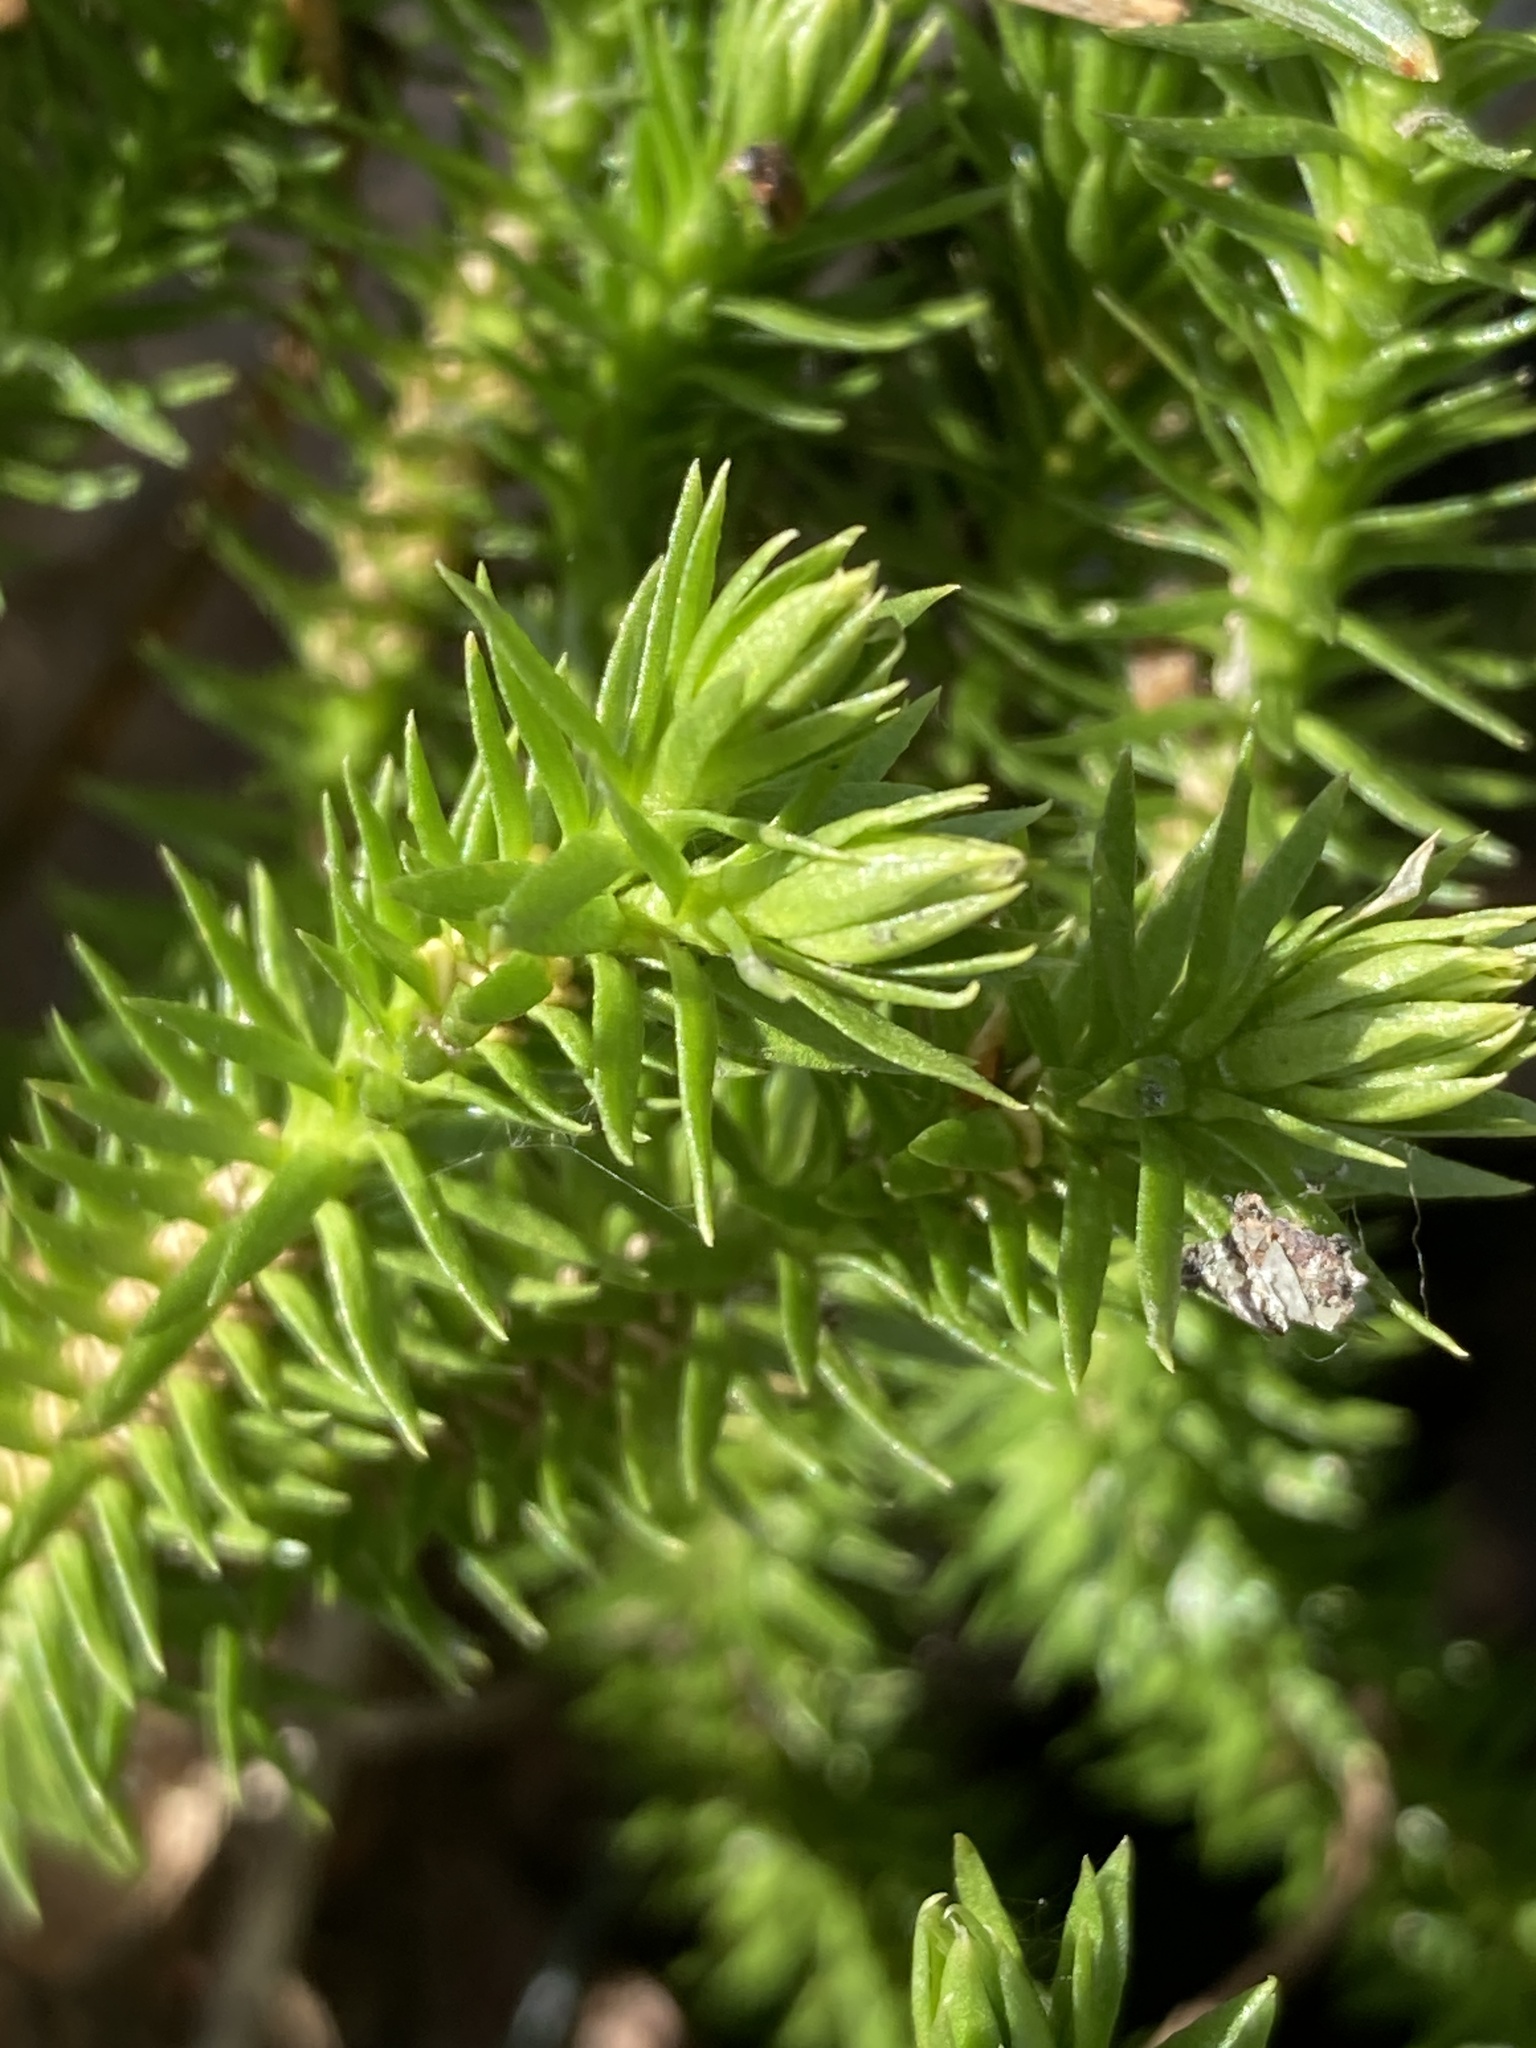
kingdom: Plantae
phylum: Tracheophyta
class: Lycopodiopsida
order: Lycopodiales
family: Lycopodiaceae
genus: Huperzia
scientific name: Huperzia selago
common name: Northern firmoss
